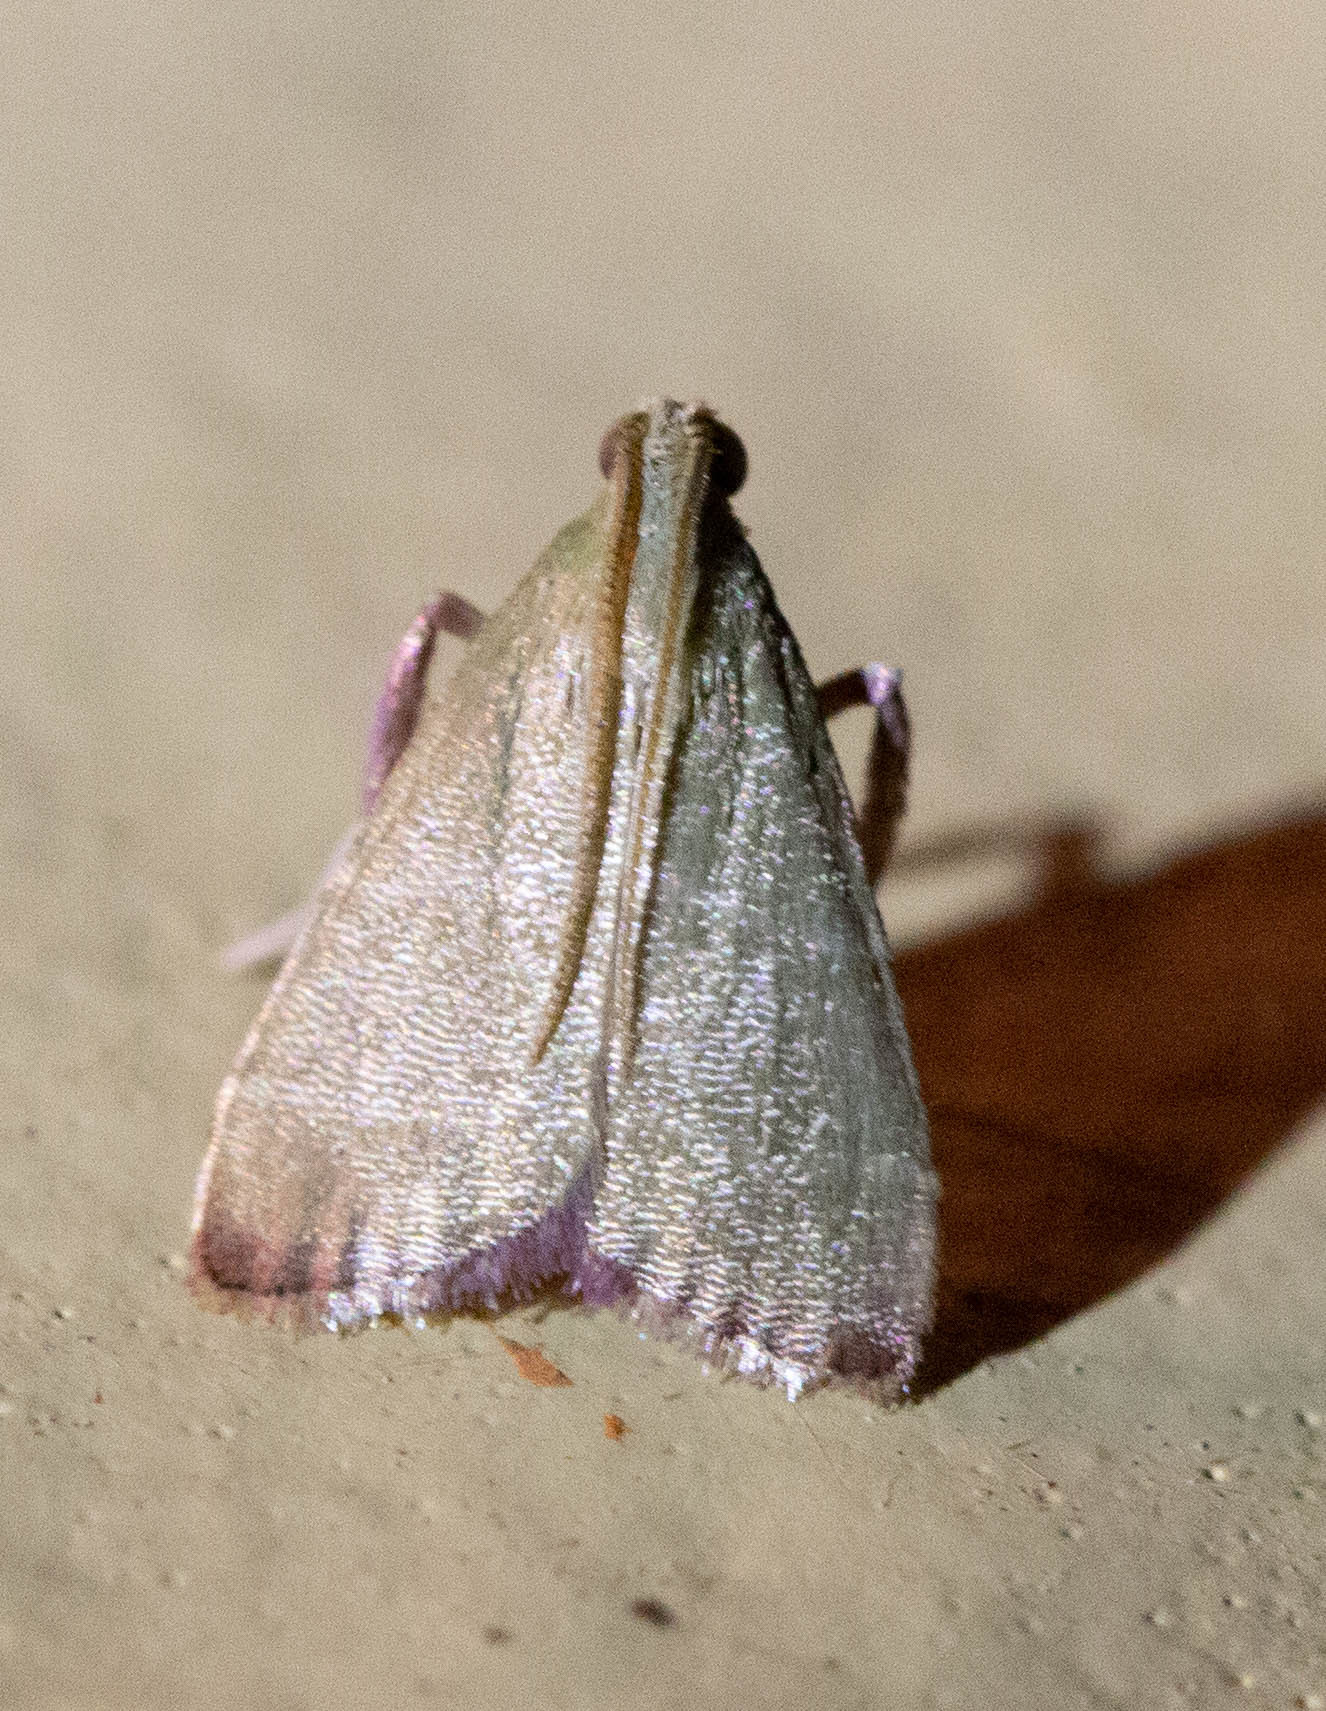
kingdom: Animalia
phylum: Arthropoda
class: Insecta
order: Lepidoptera
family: Pyralidae
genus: Arta
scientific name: Arta olivalis
